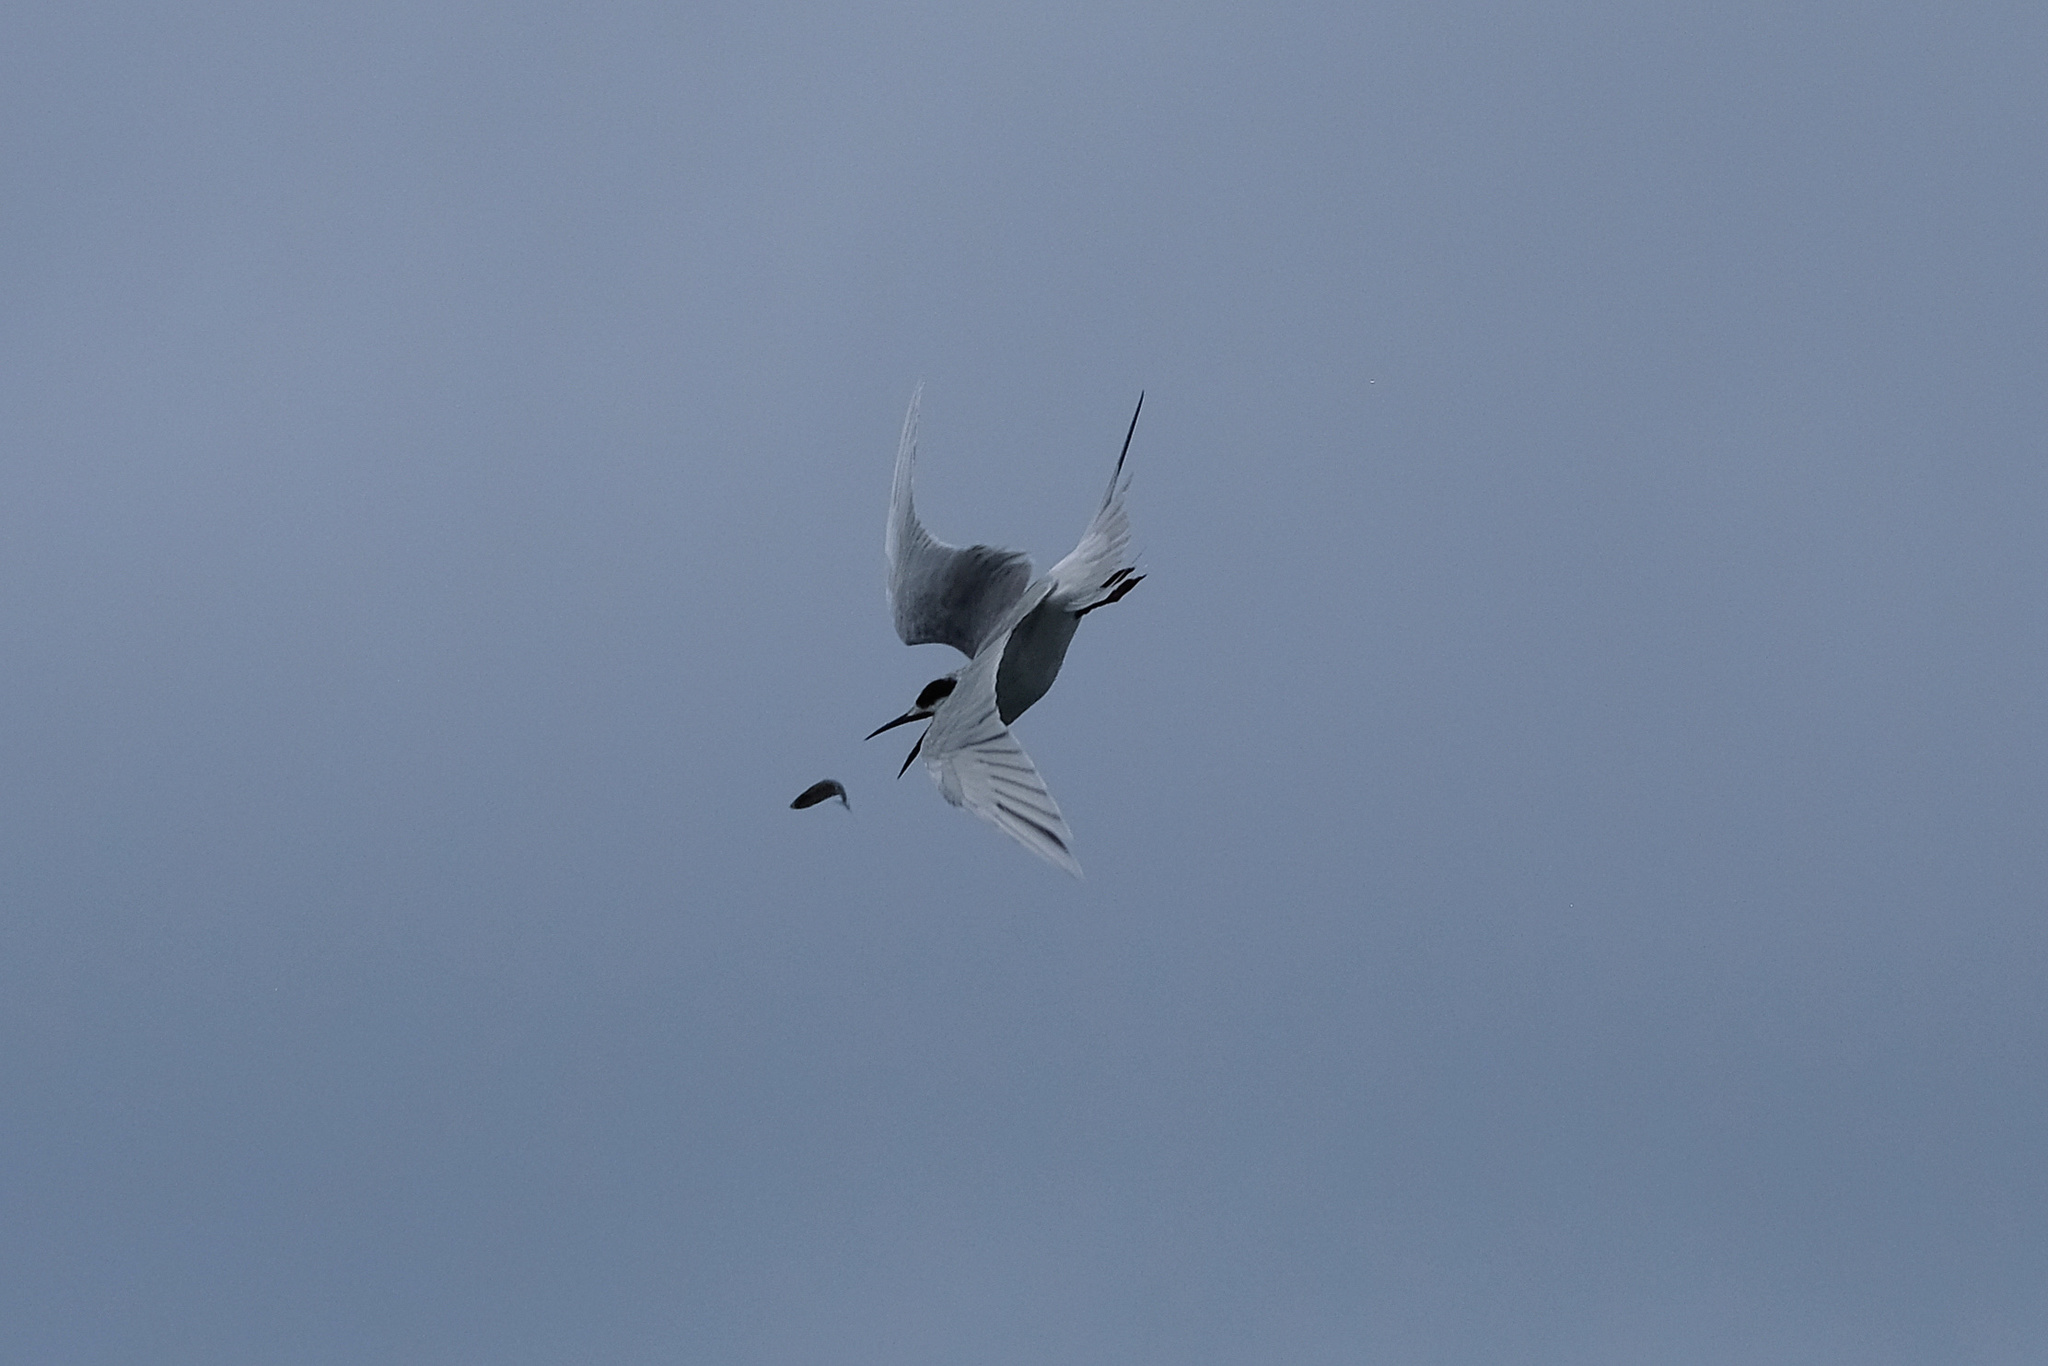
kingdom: Animalia
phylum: Chordata
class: Aves
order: Charadriiformes
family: Laridae
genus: Sterna
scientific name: Sterna forsteri
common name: Forster's tern
